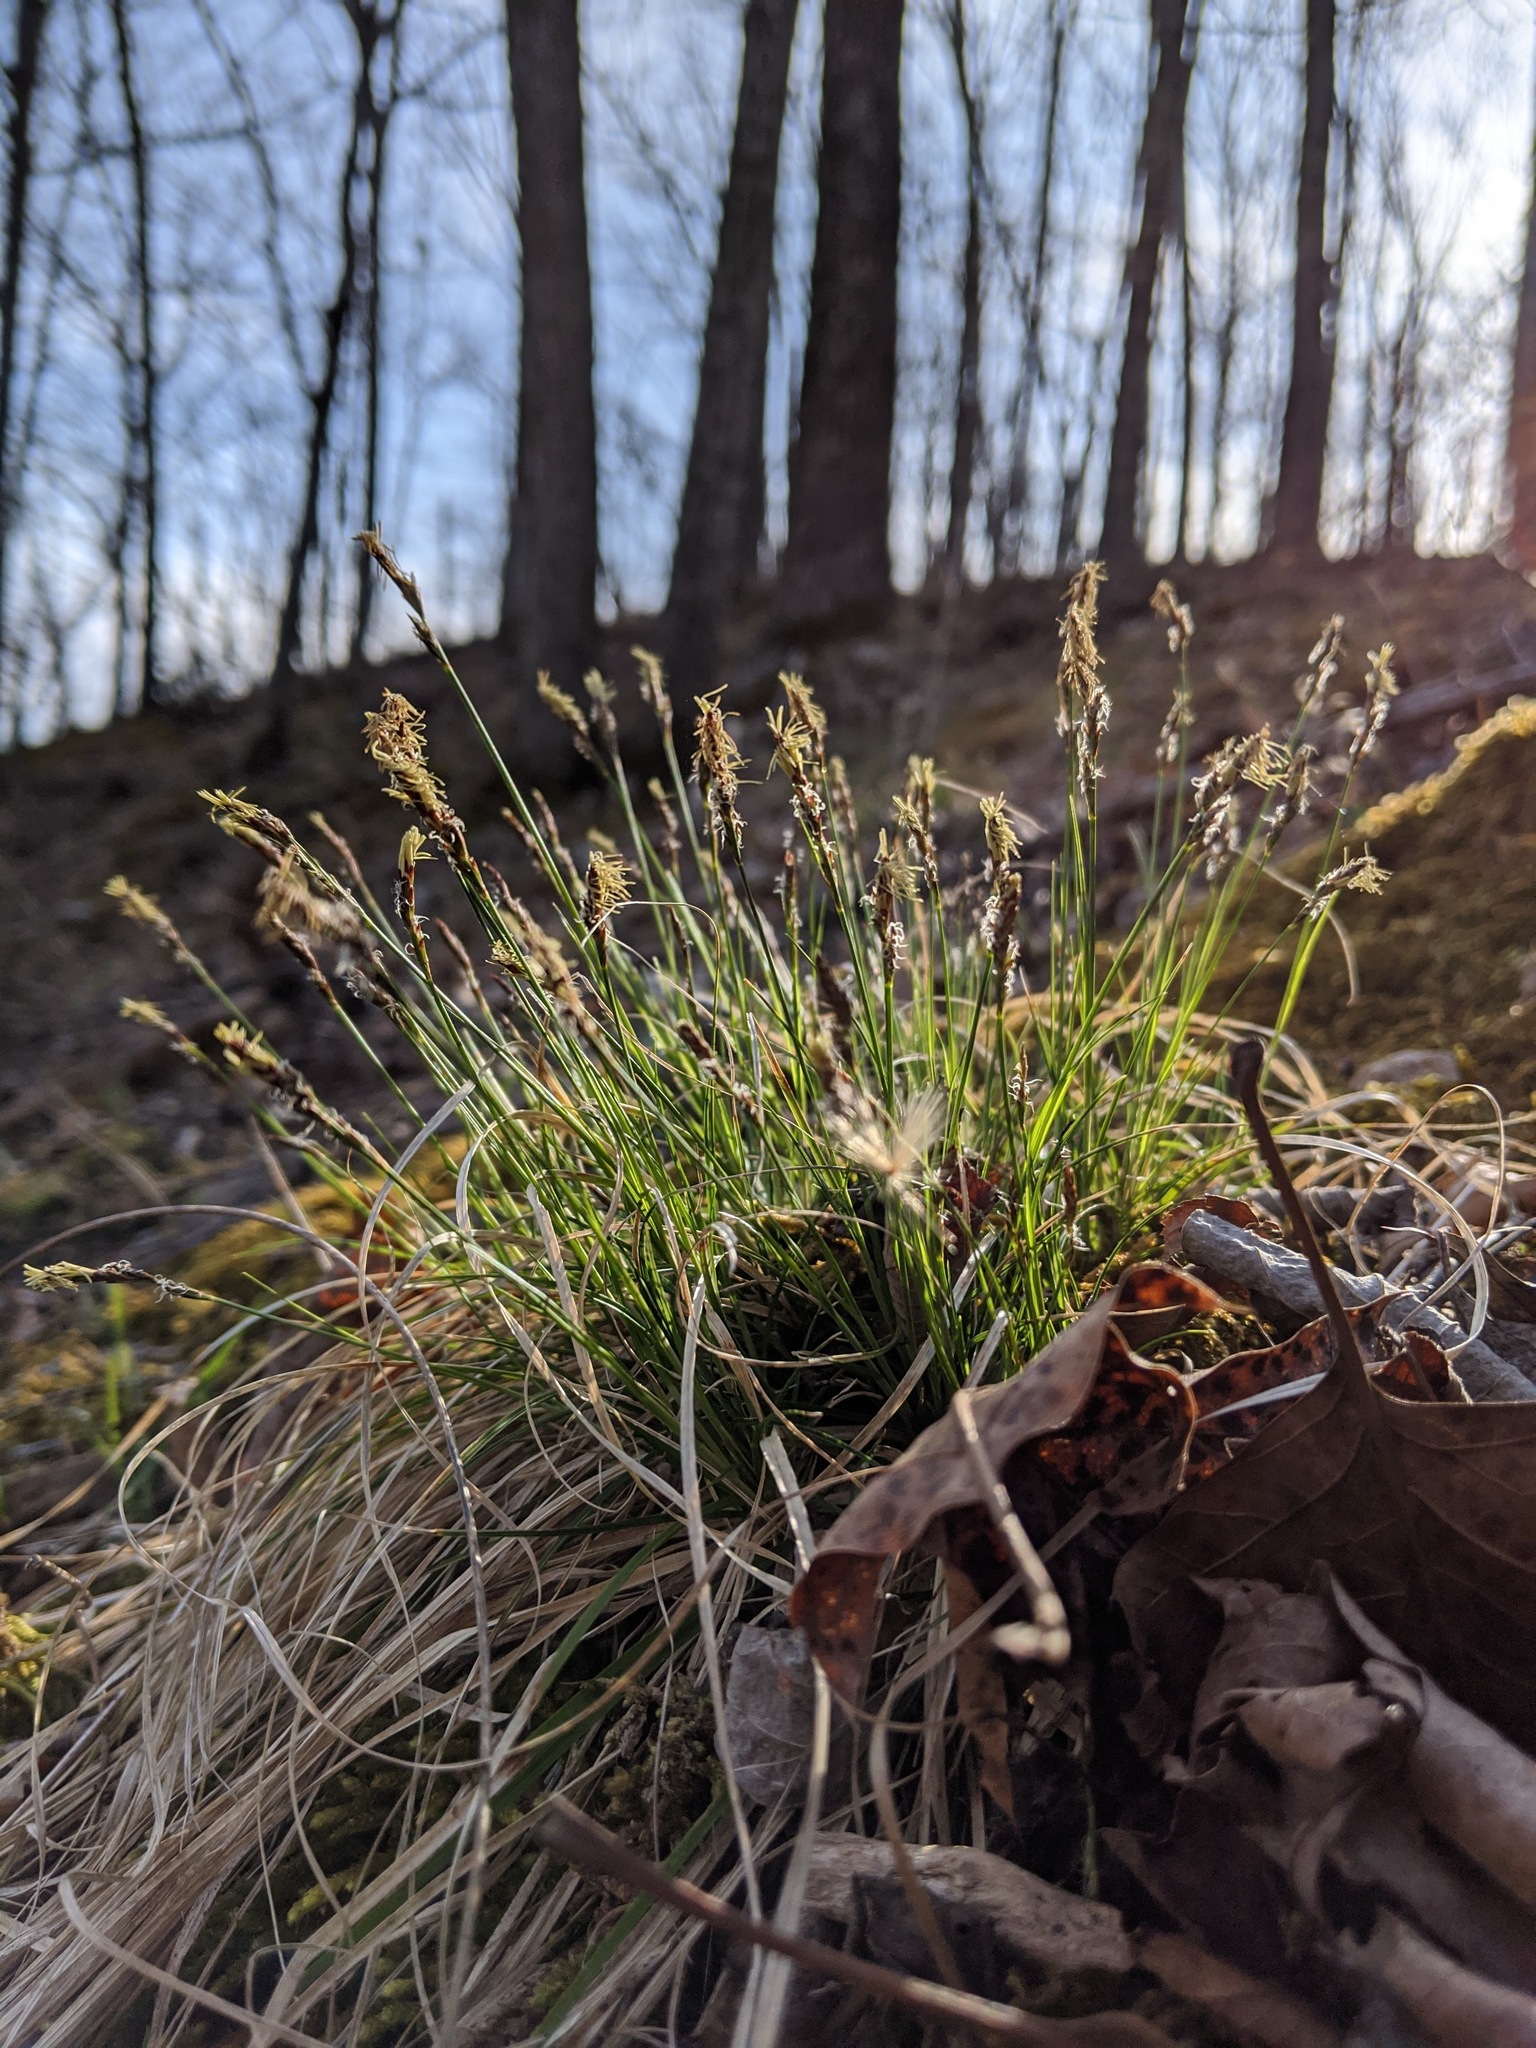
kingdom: Plantae
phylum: Tracheophyta
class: Liliopsida
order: Poales
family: Cyperaceae
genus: Carex
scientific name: Carex albicans
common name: Bellow-beaked sedge
